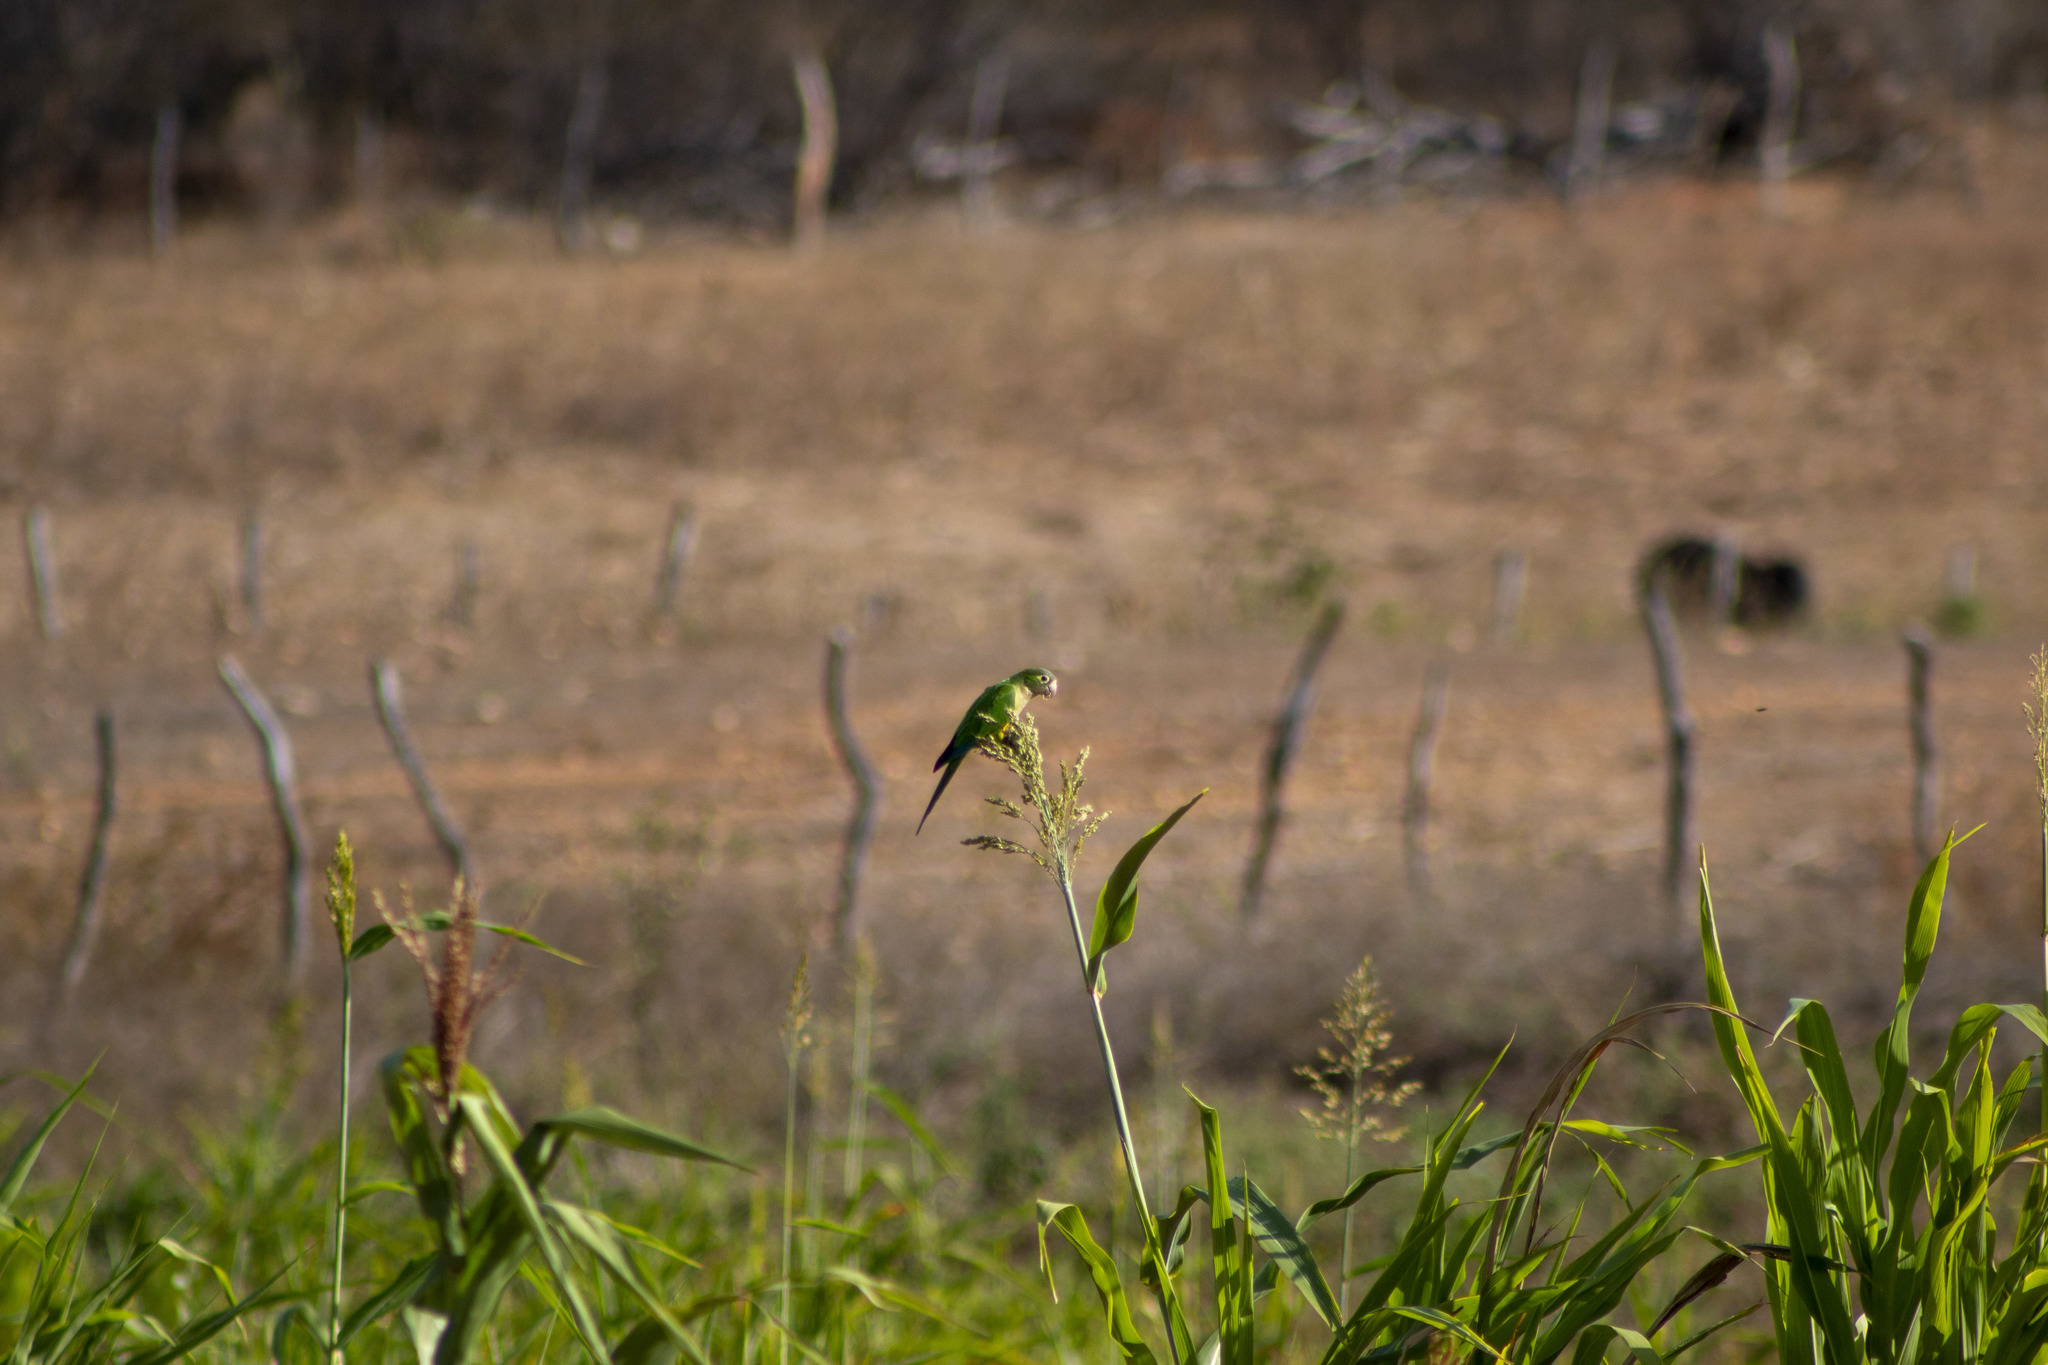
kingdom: Animalia
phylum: Chordata
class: Aves
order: Psittaciformes
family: Psittacidae
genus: Aratinga
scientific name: Aratinga cactorum
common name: Caatinga parakeet
